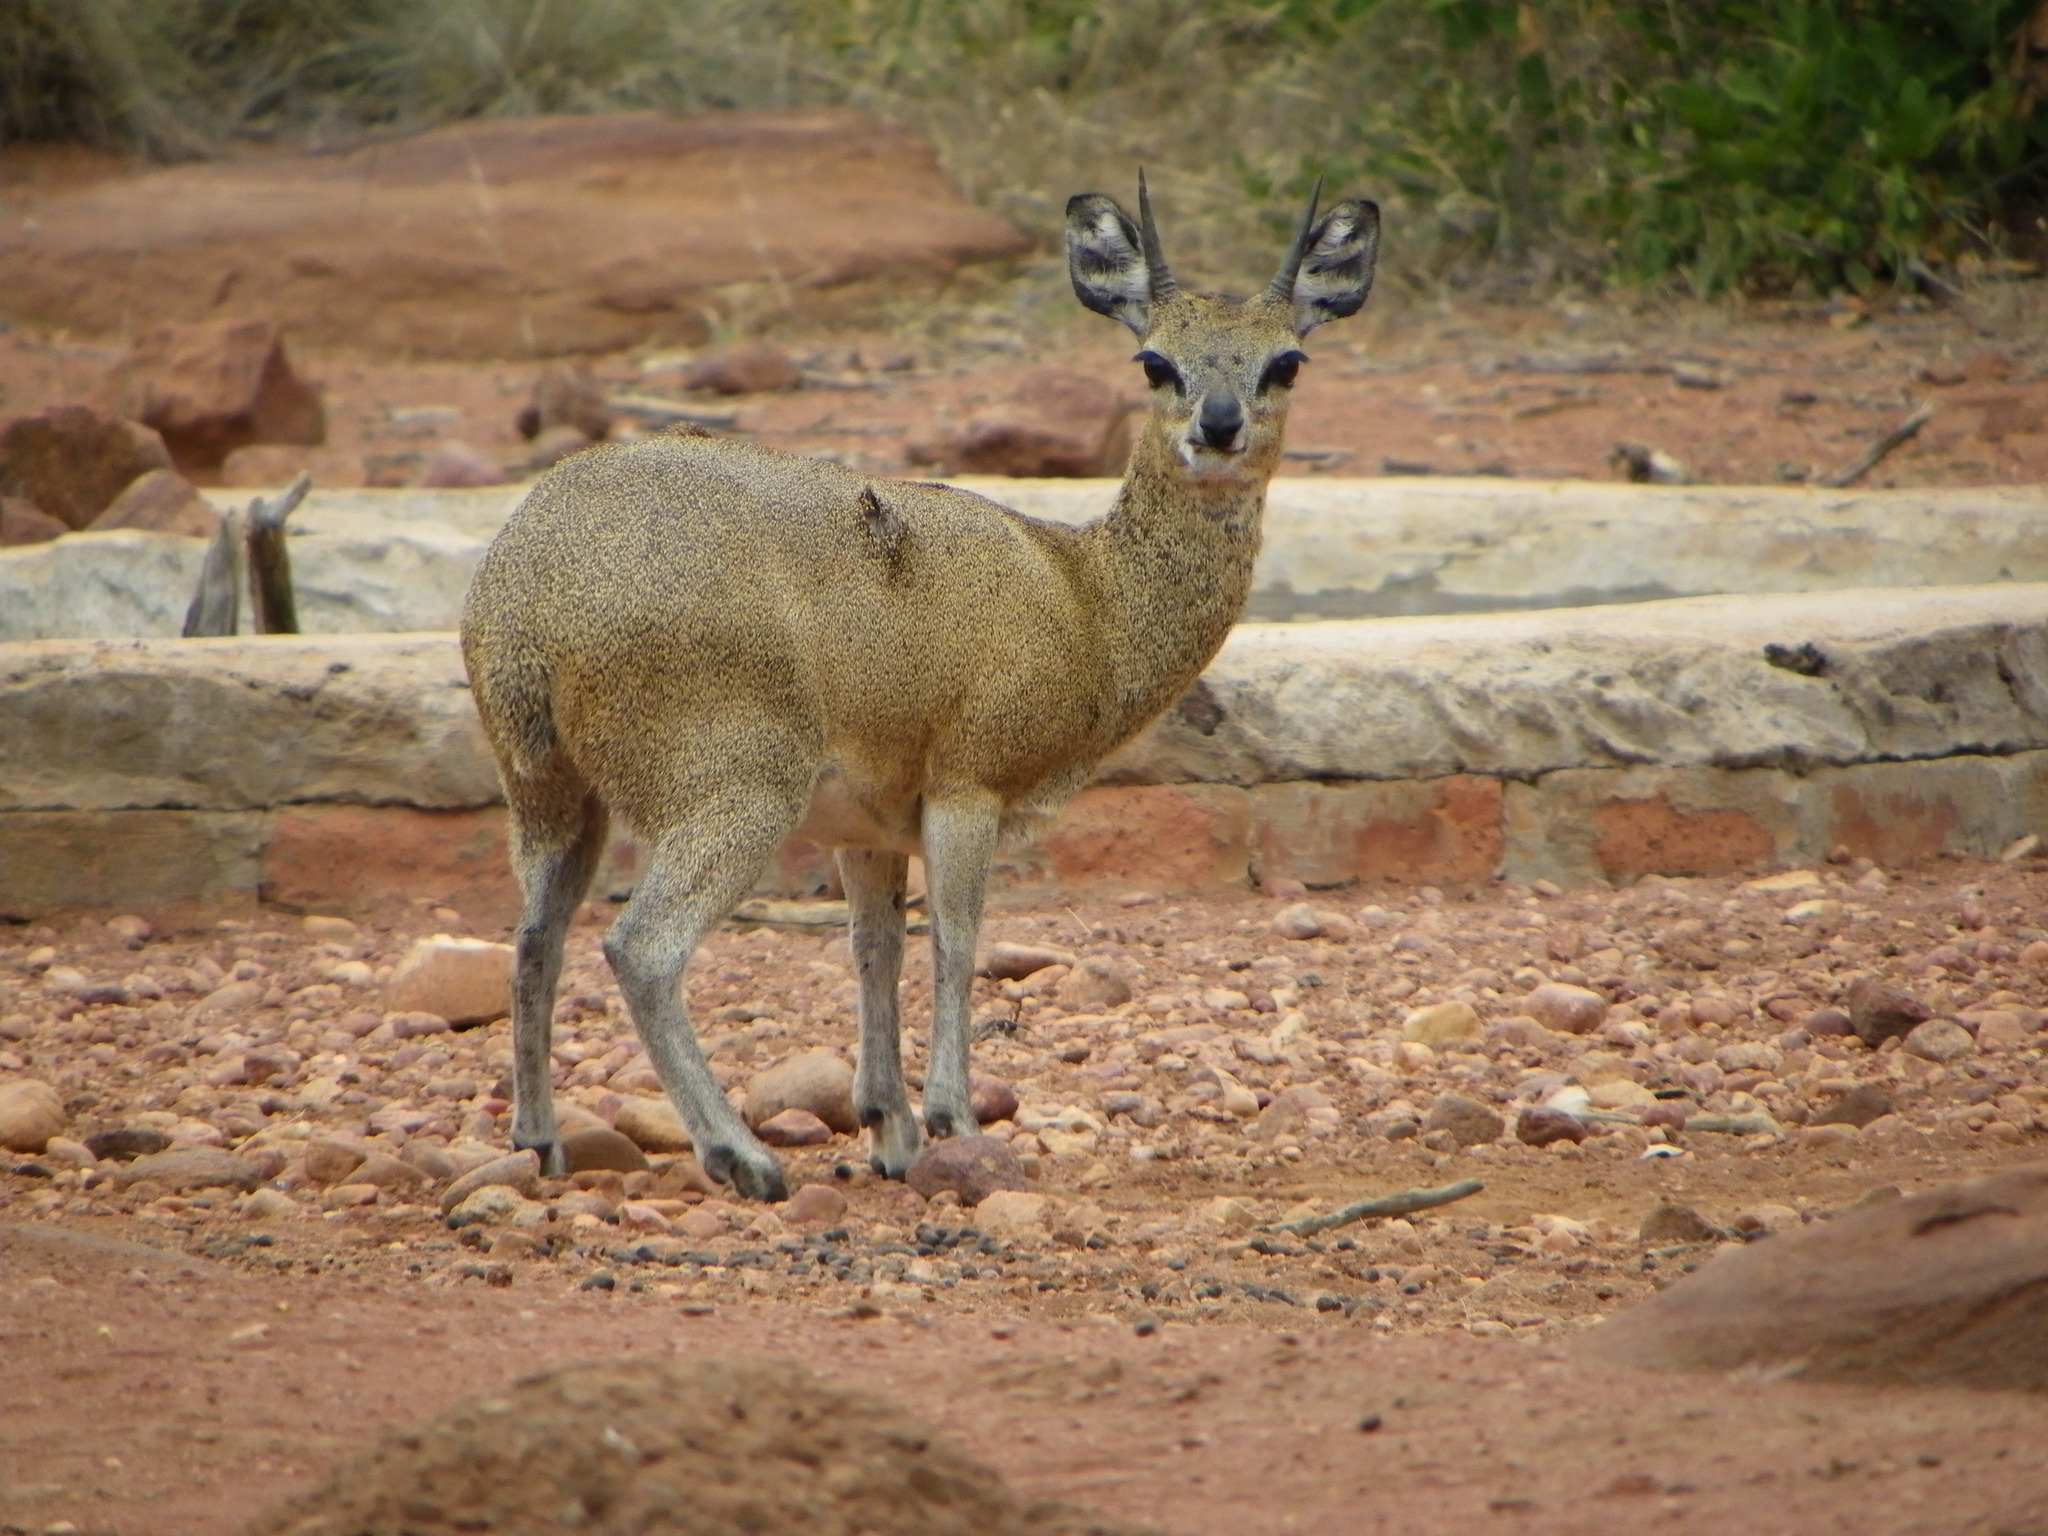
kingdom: Animalia
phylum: Chordata
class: Mammalia
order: Artiodactyla
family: Bovidae
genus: Oreotragus
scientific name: Oreotragus oreotragus
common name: Klipspringer
